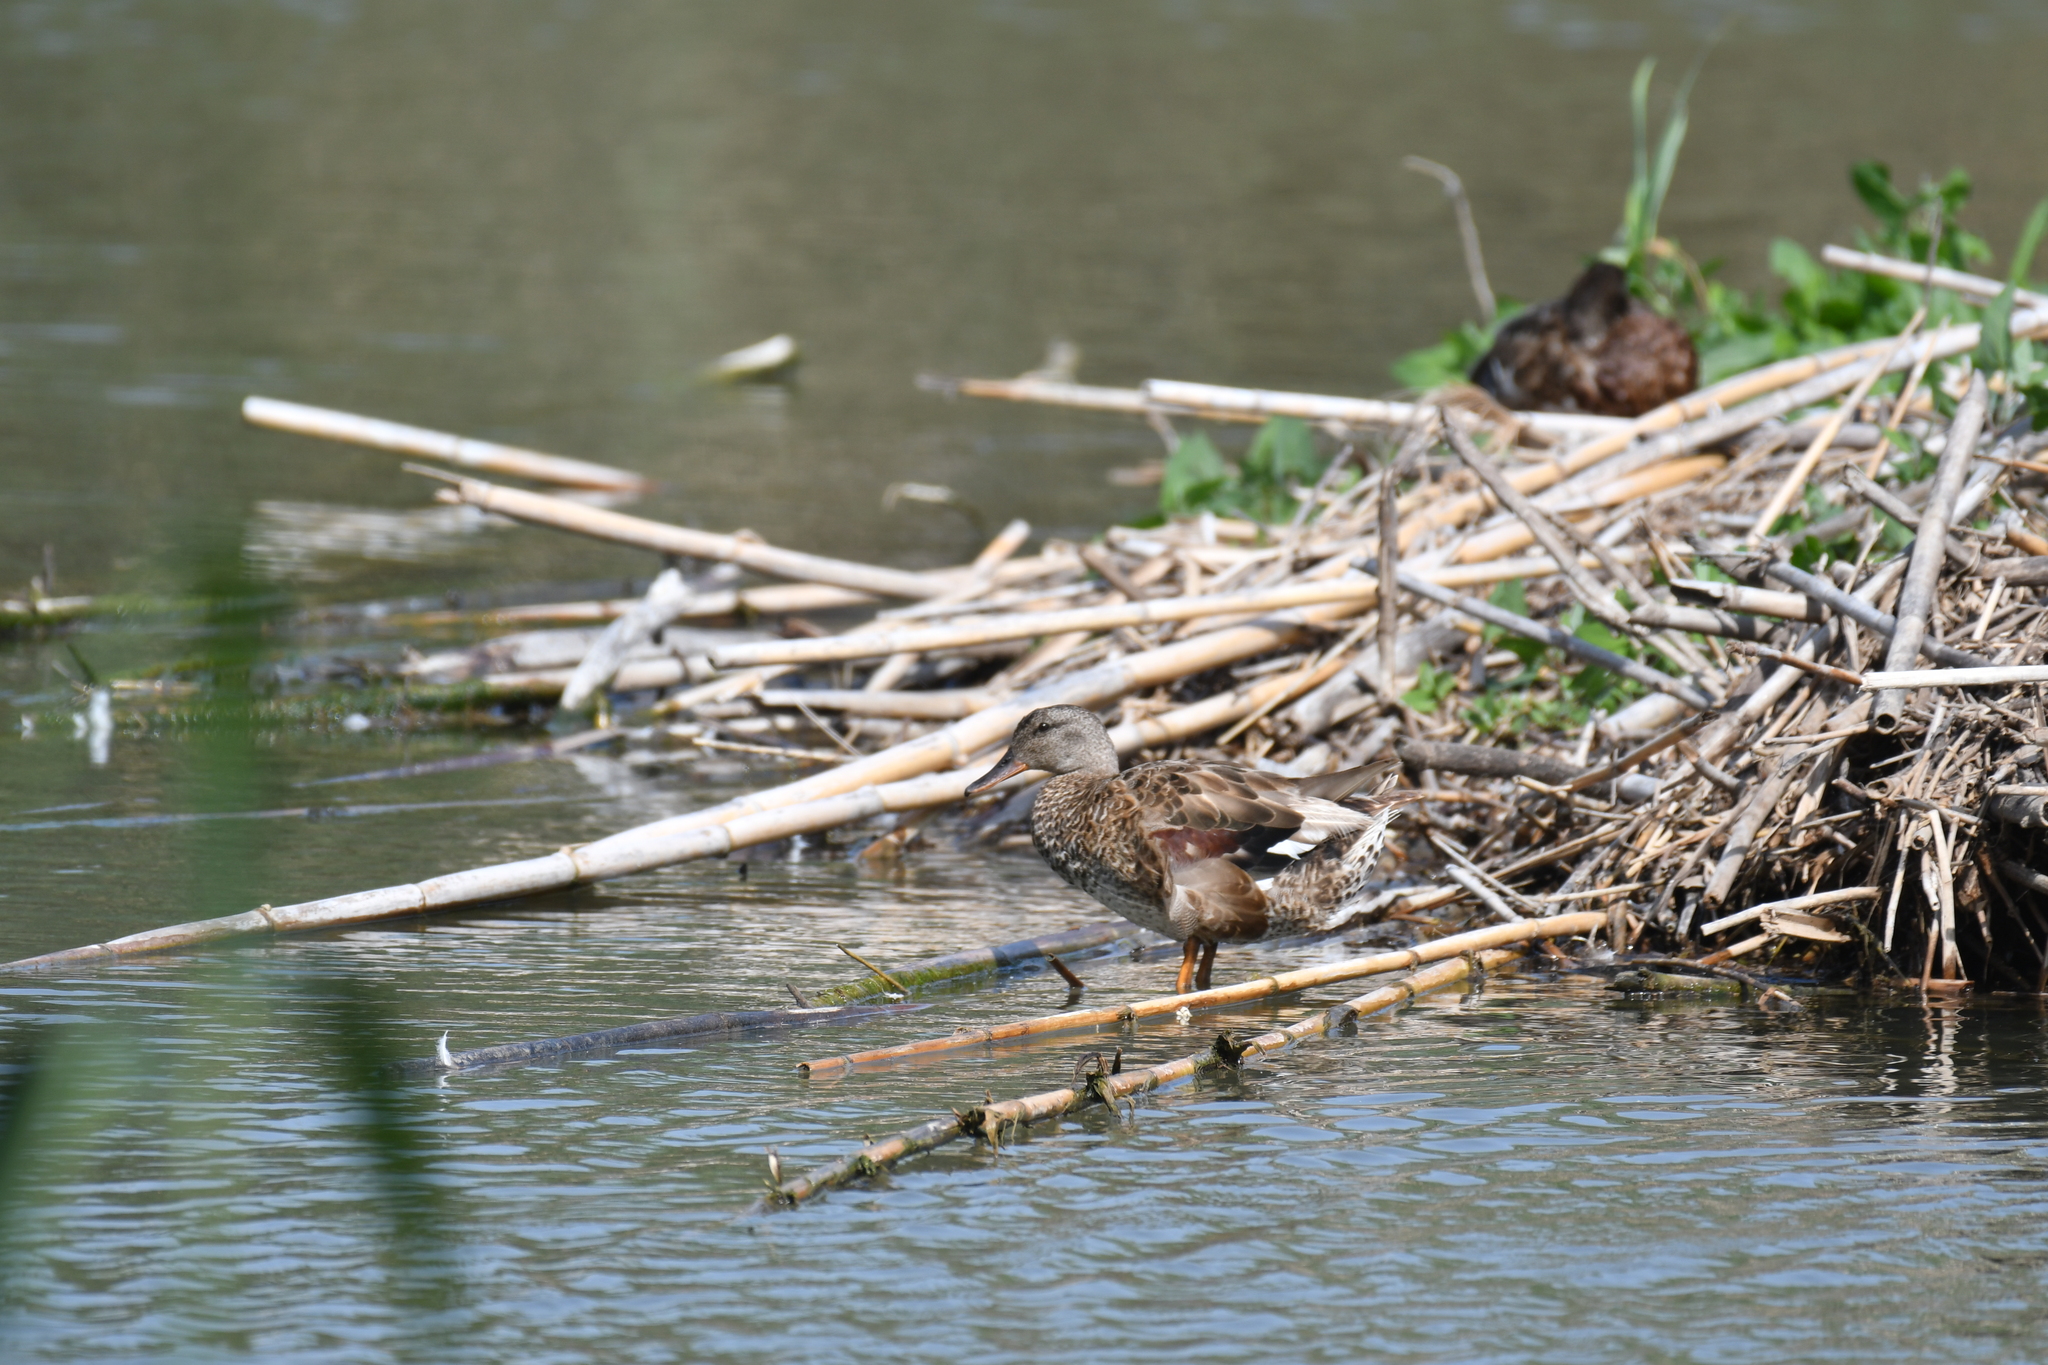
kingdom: Animalia
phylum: Chordata
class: Aves
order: Anseriformes
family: Anatidae
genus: Mareca
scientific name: Mareca strepera
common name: Gadwall
